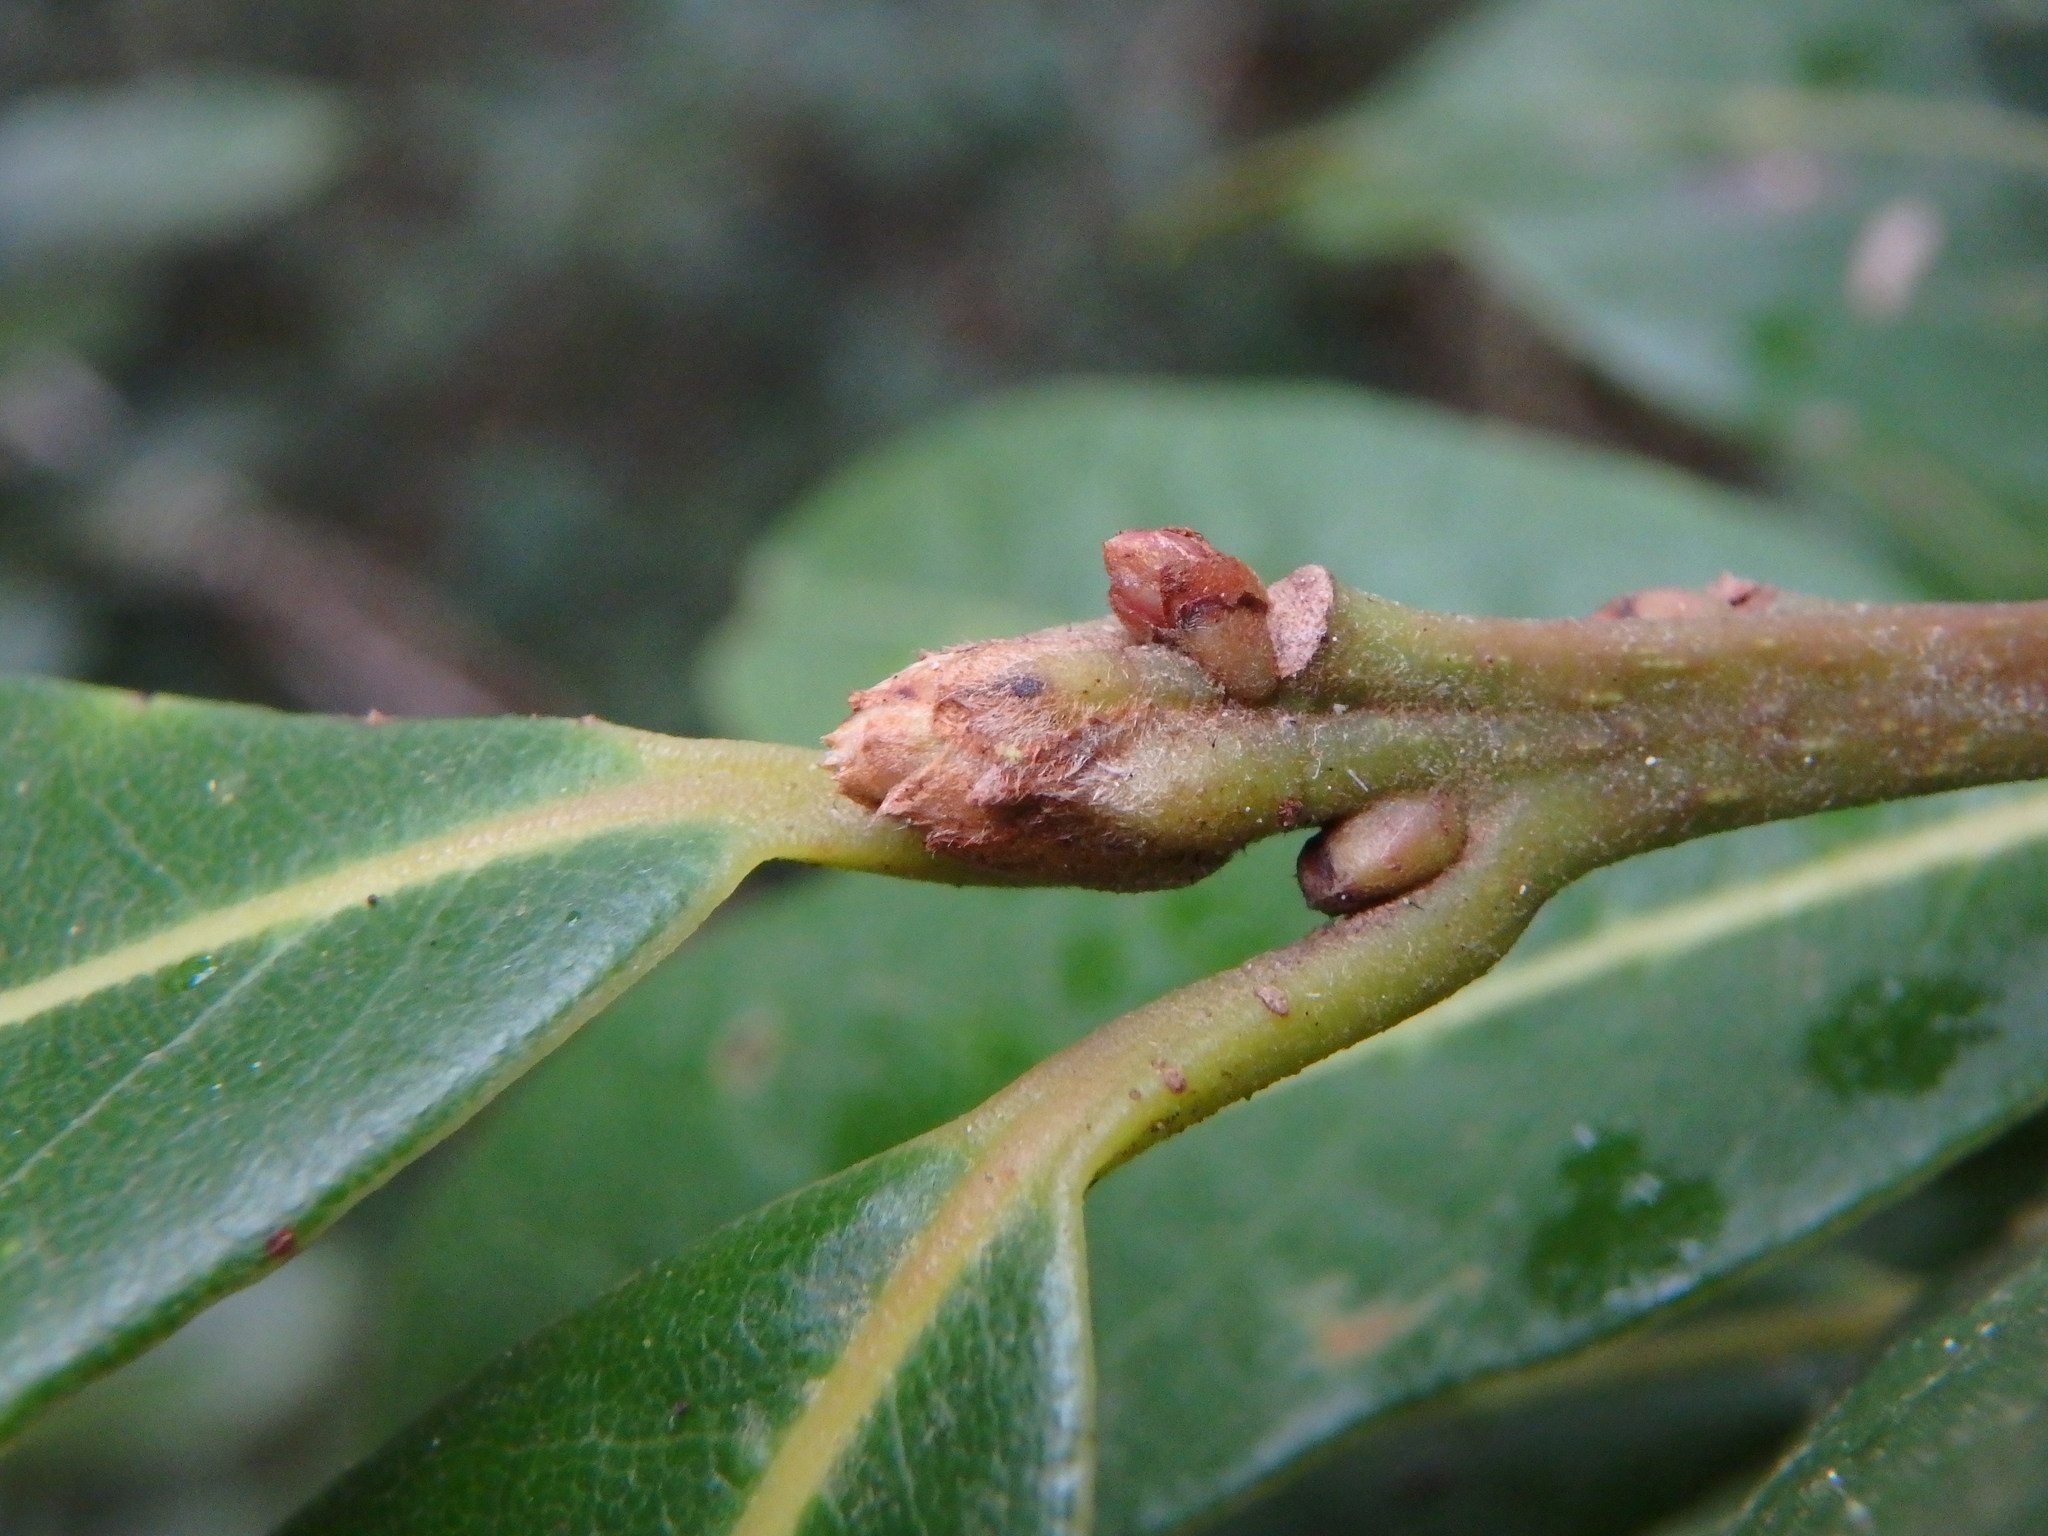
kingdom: Plantae
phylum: Tracheophyta
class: Magnoliopsida
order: Laurales
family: Lauraceae
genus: Laurus
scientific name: Laurus novocanariensis
